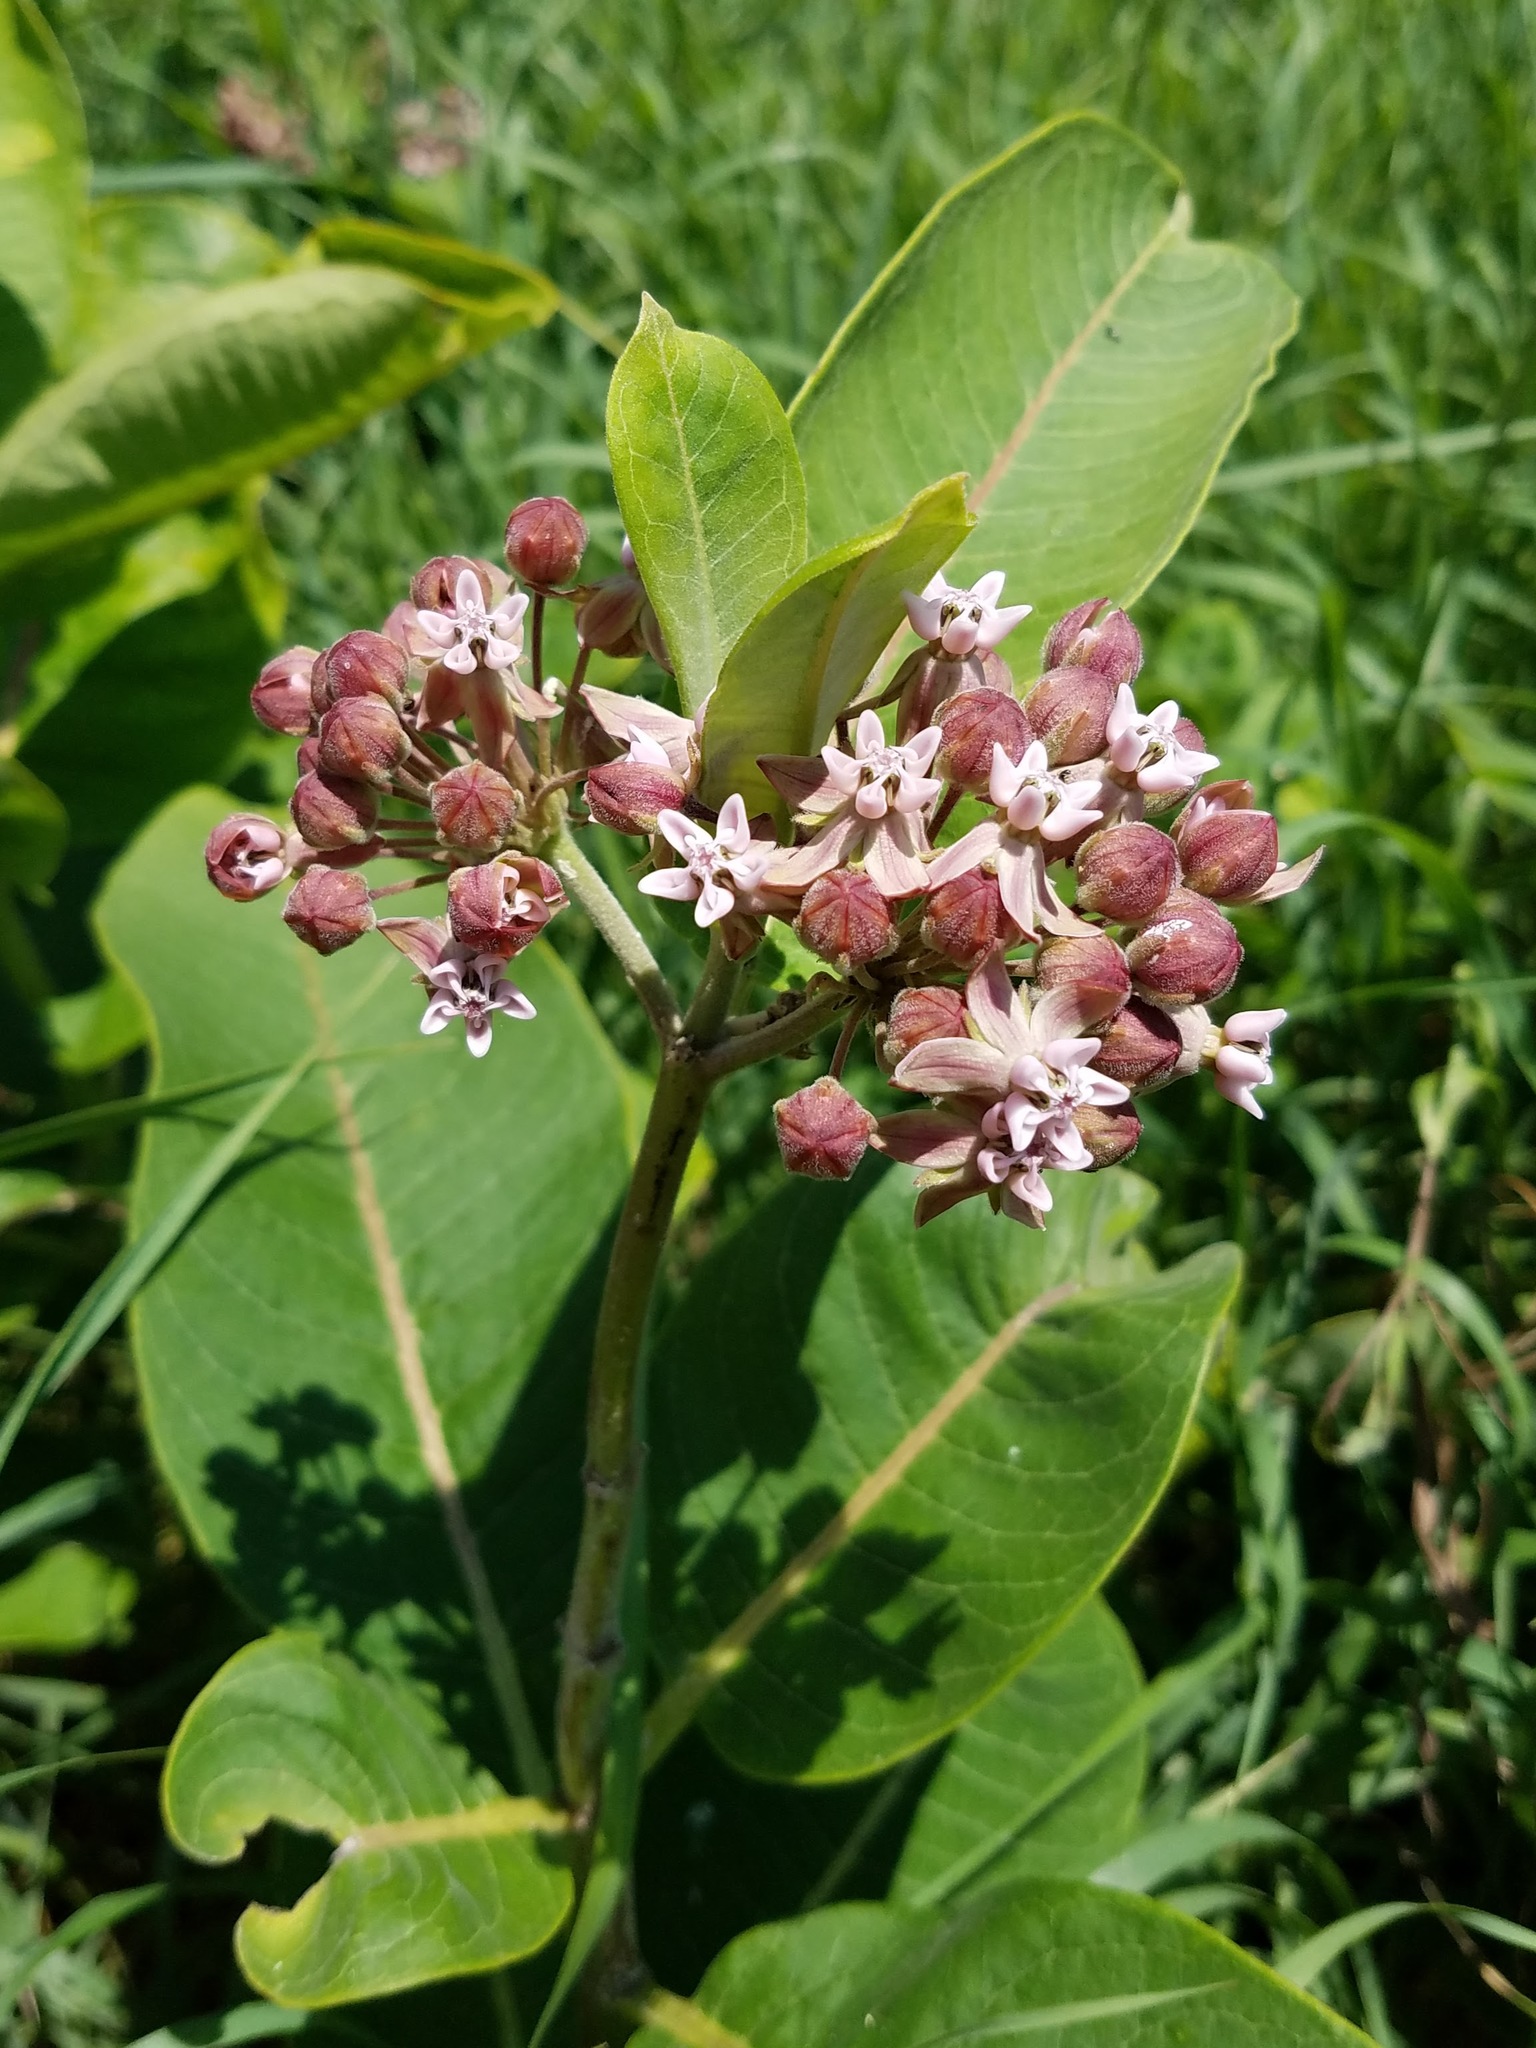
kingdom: Plantae
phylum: Tracheophyta
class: Magnoliopsida
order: Gentianales
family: Apocynaceae
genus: Asclepias
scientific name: Asclepias syriaca
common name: Common milkweed
